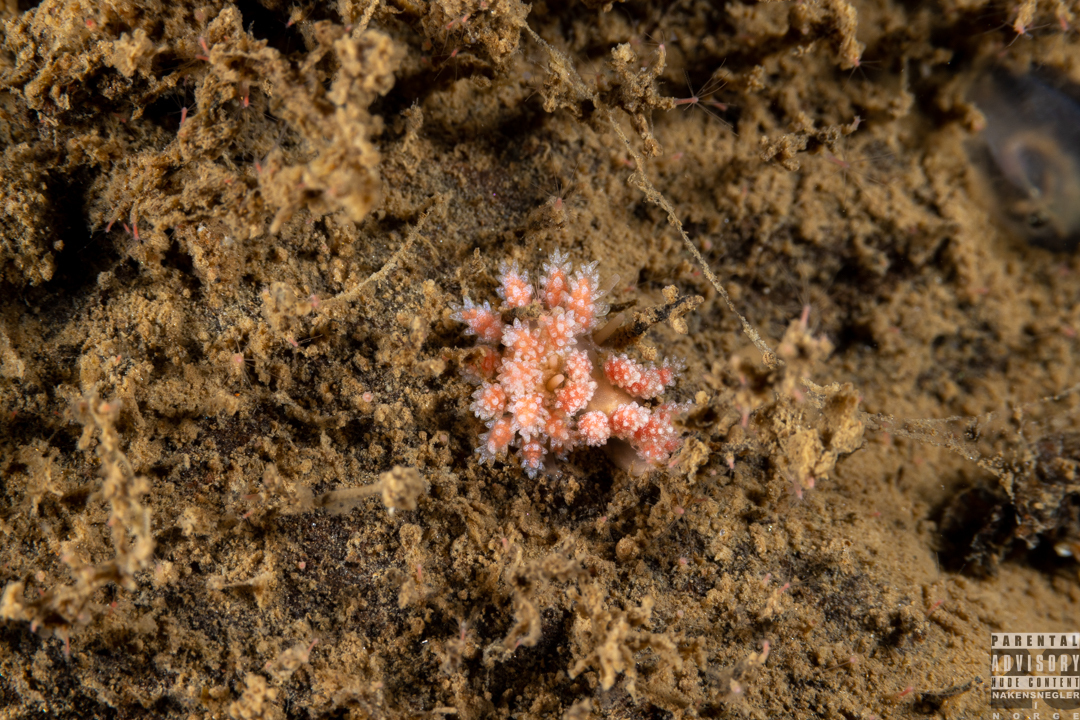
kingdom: Animalia
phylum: Mollusca
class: Gastropoda
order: Nudibranchia
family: Dotidae
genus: Doto
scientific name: Doto fragilis
